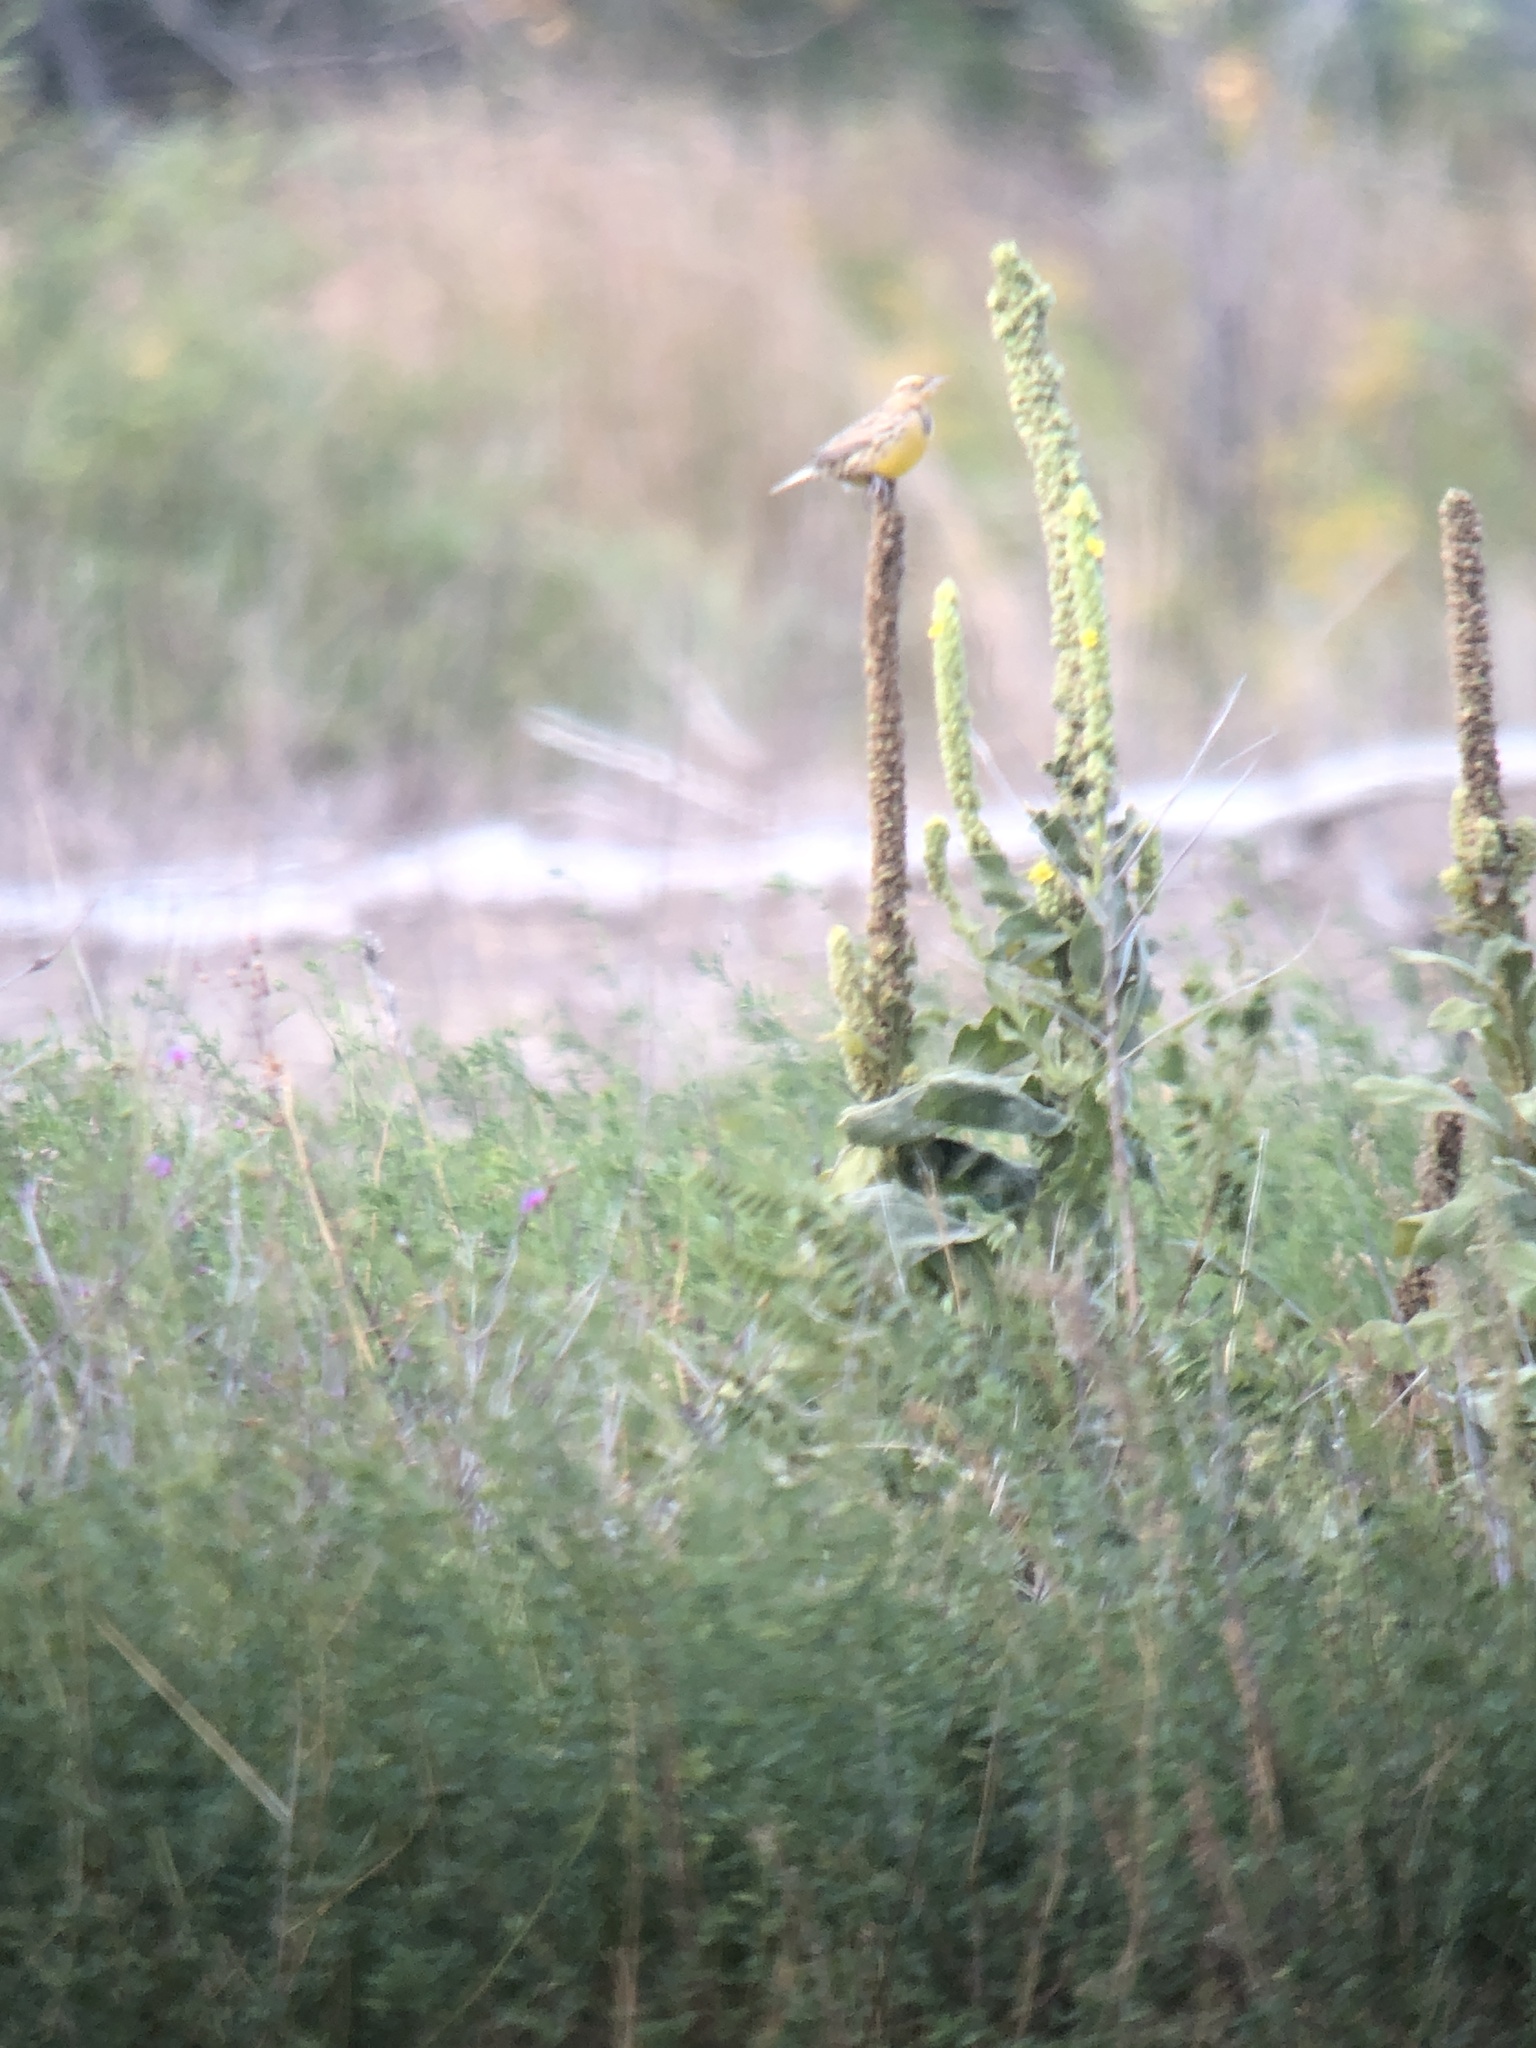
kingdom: Animalia
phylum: Chordata
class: Aves
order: Passeriformes
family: Icteridae
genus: Sturnella
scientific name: Sturnella magna
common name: Eastern meadowlark
